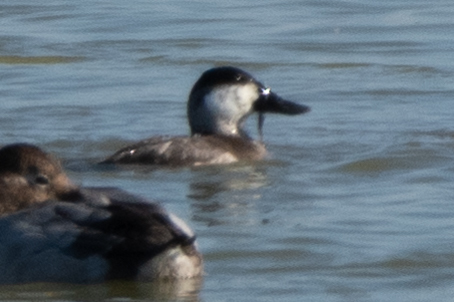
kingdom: Animalia
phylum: Chordata
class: Aves
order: Anseriformes
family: Anatidae
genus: Oxyura
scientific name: Oxyura jamaicensis
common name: Ruddy duck
